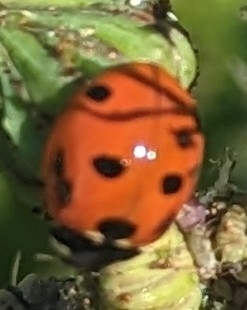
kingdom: Animalia
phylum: Arthropoda
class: Insecta
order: Coleoptera
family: Coccinellidae
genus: Coccinella
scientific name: Coccinella septempunctata
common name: Sevenspotted lady beetle
